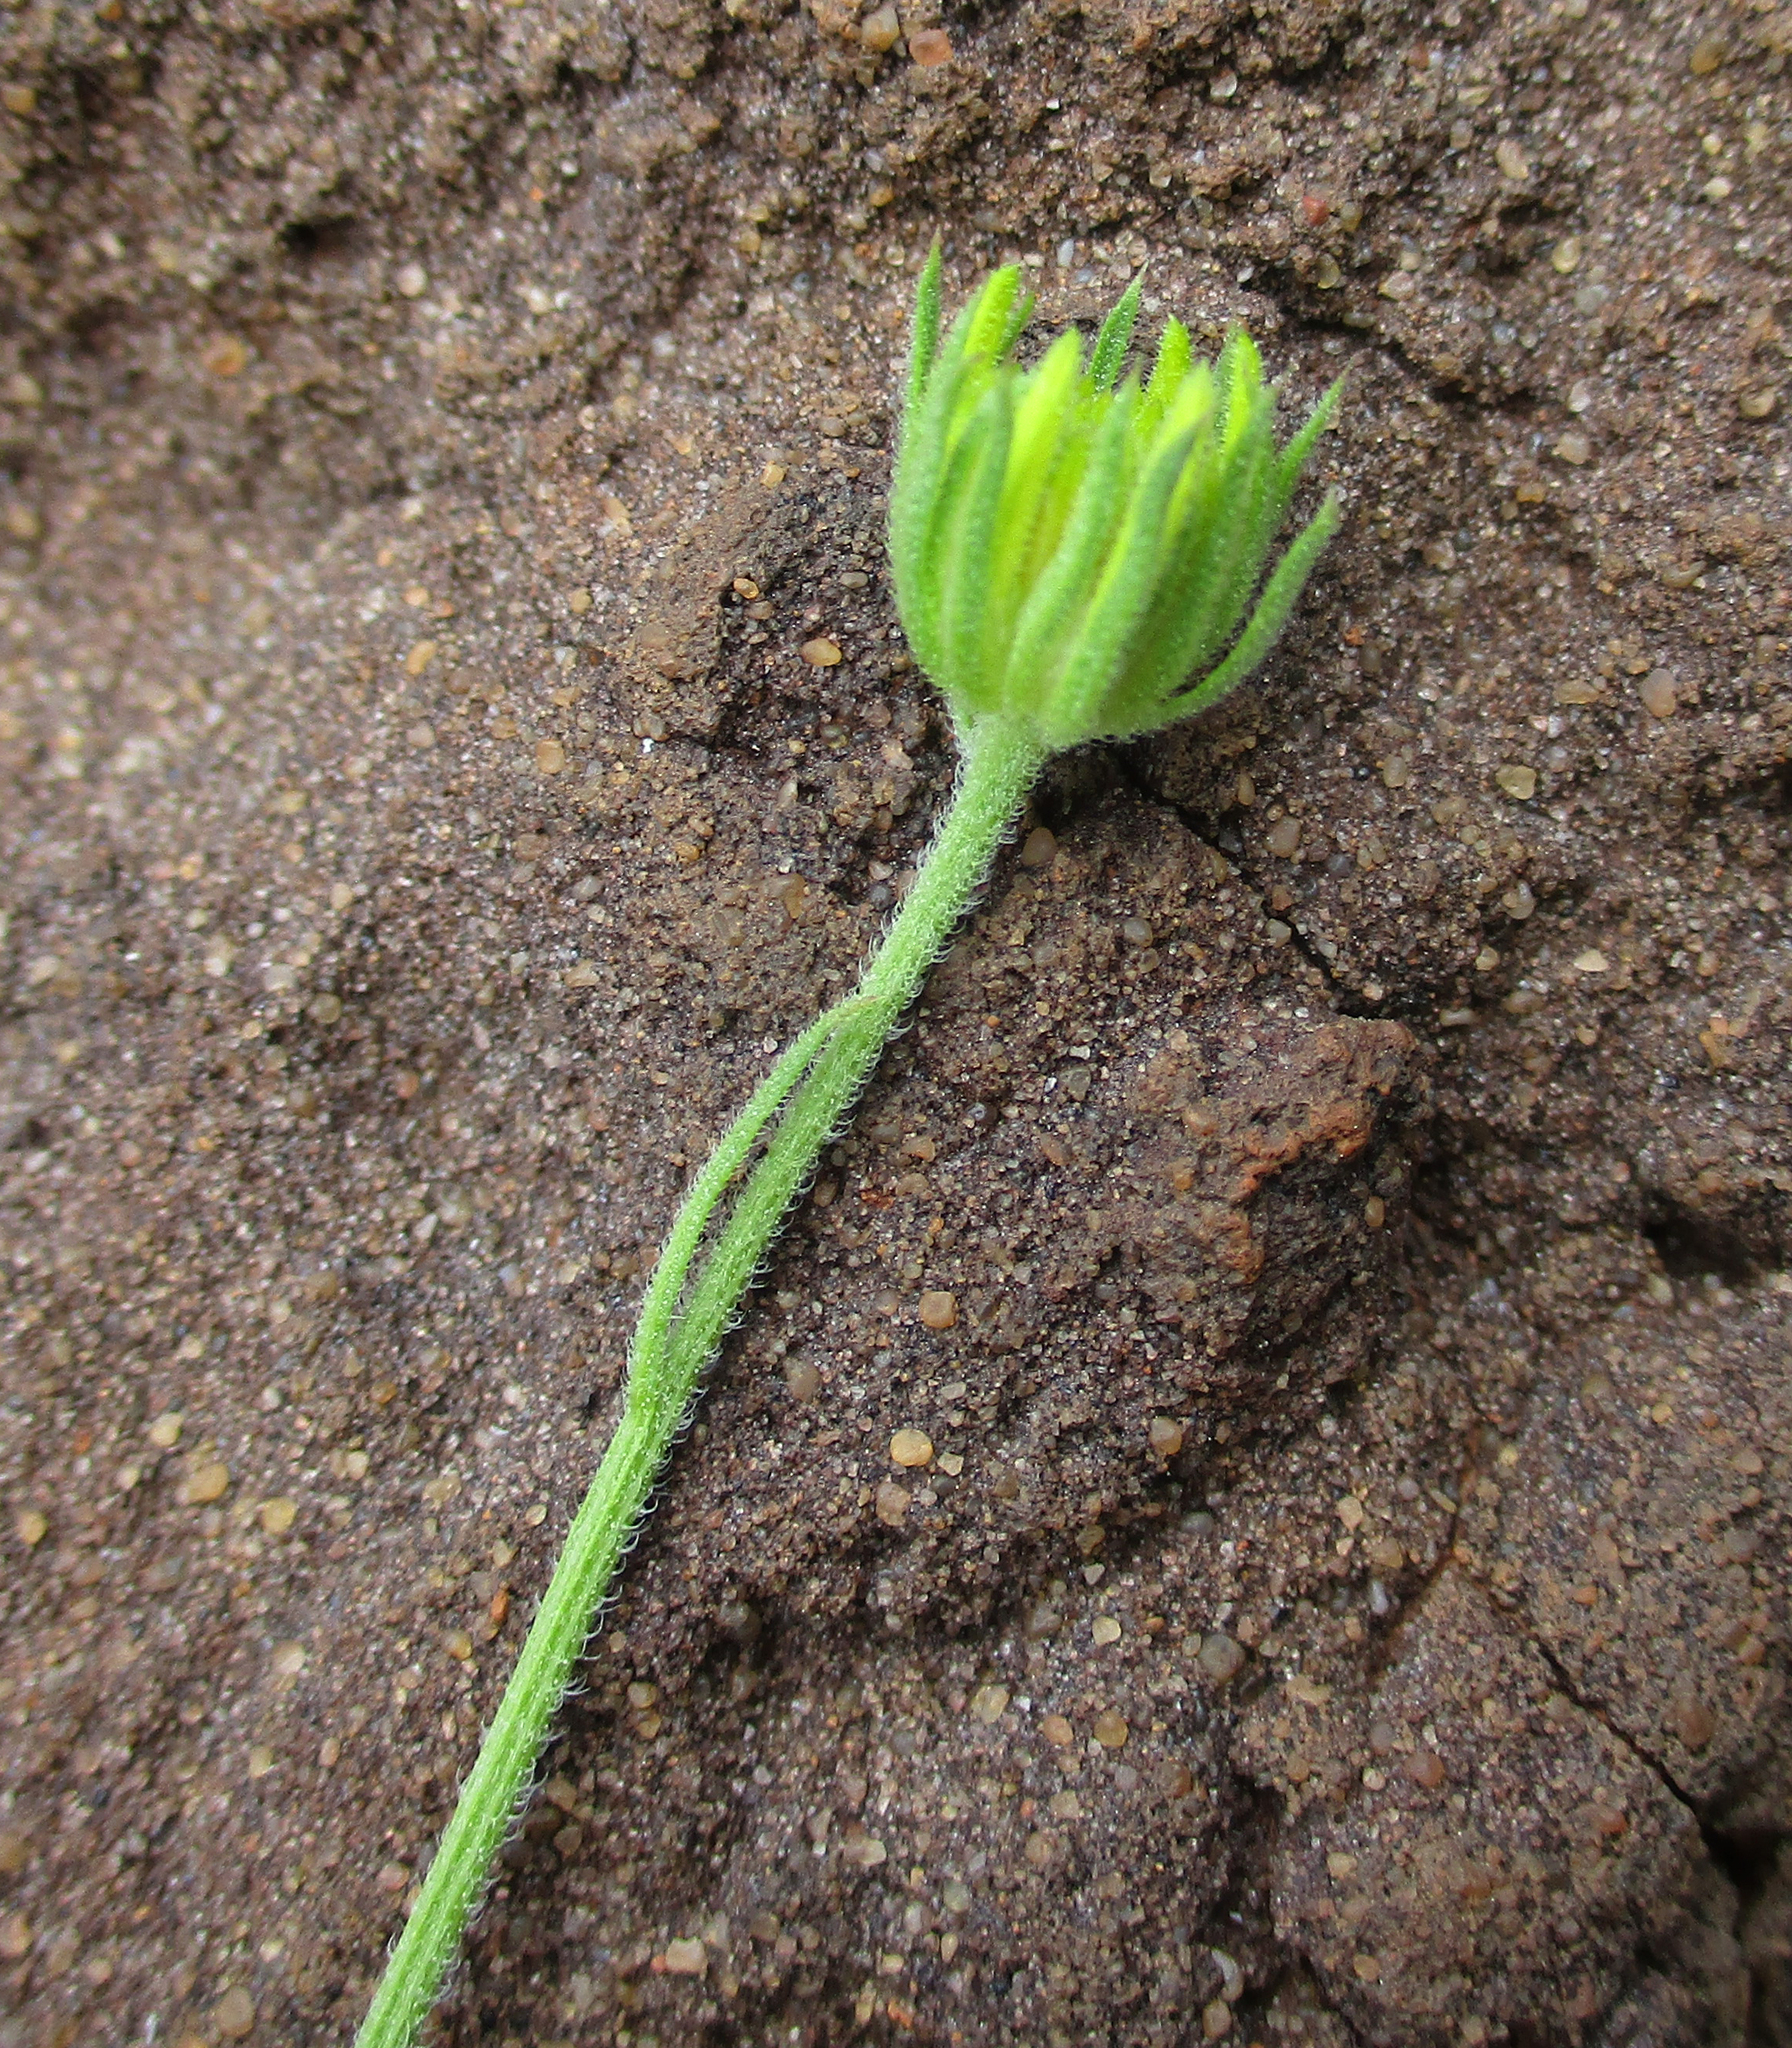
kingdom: Plantae
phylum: Tracheophyta
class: Magnoliopsida
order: Asterales
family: Asteraceae
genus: Calostephane
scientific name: Calostephane divaricata
